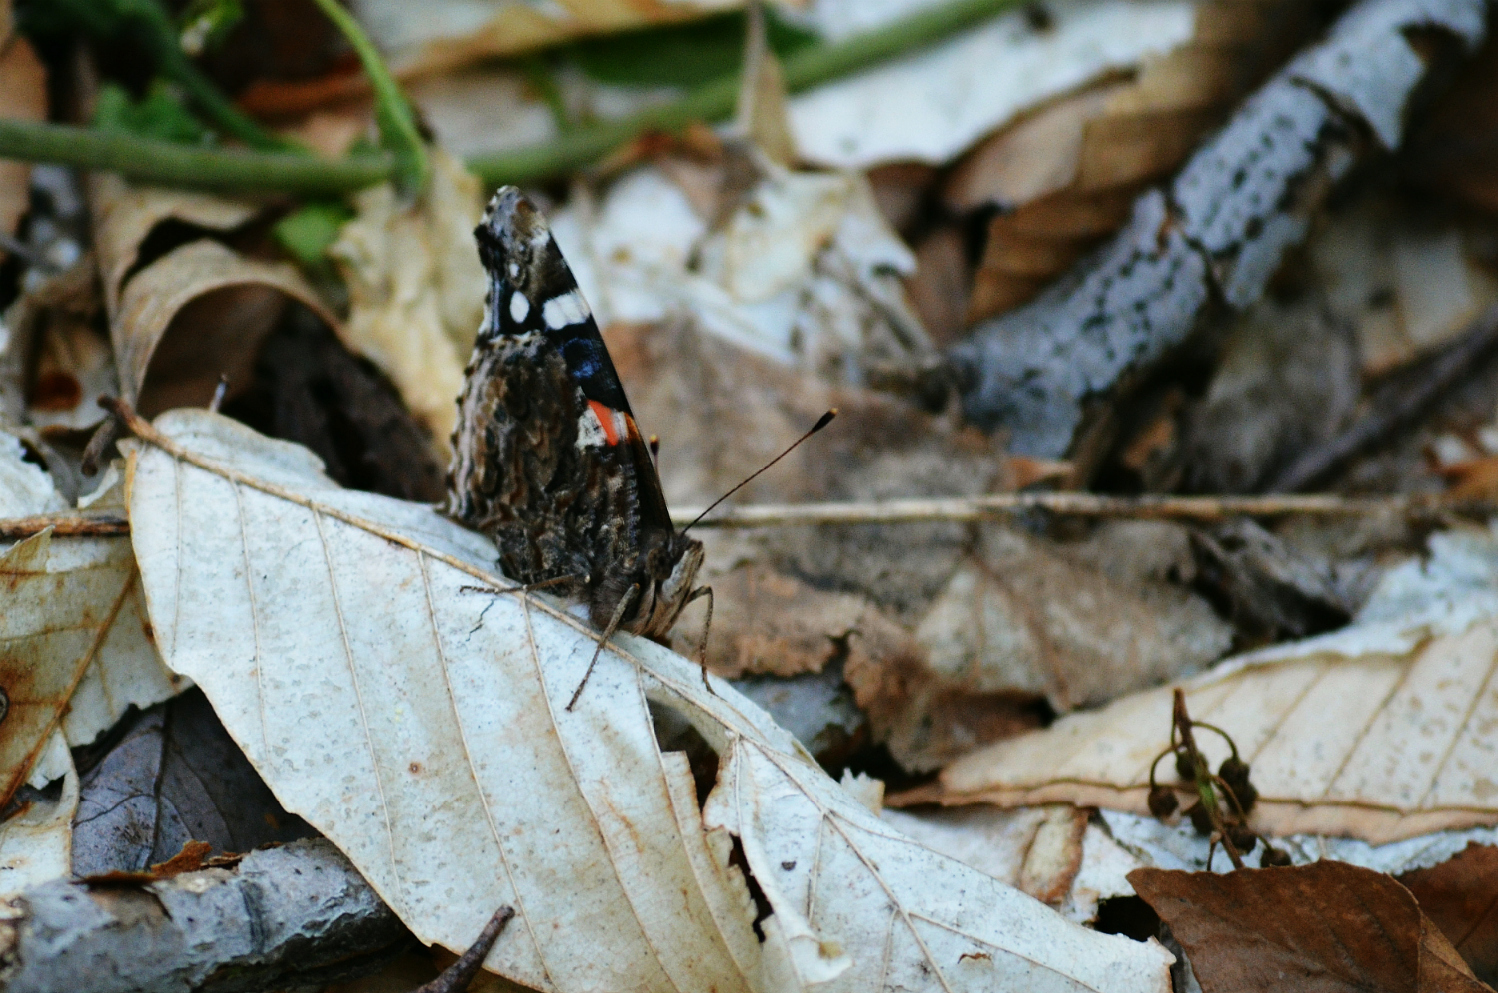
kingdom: Animalia
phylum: Arthropoda
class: Insecta
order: Lepidoptera
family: Nymphalidae
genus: Vanessa
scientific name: Vanessa atalanta
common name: Red admiral
